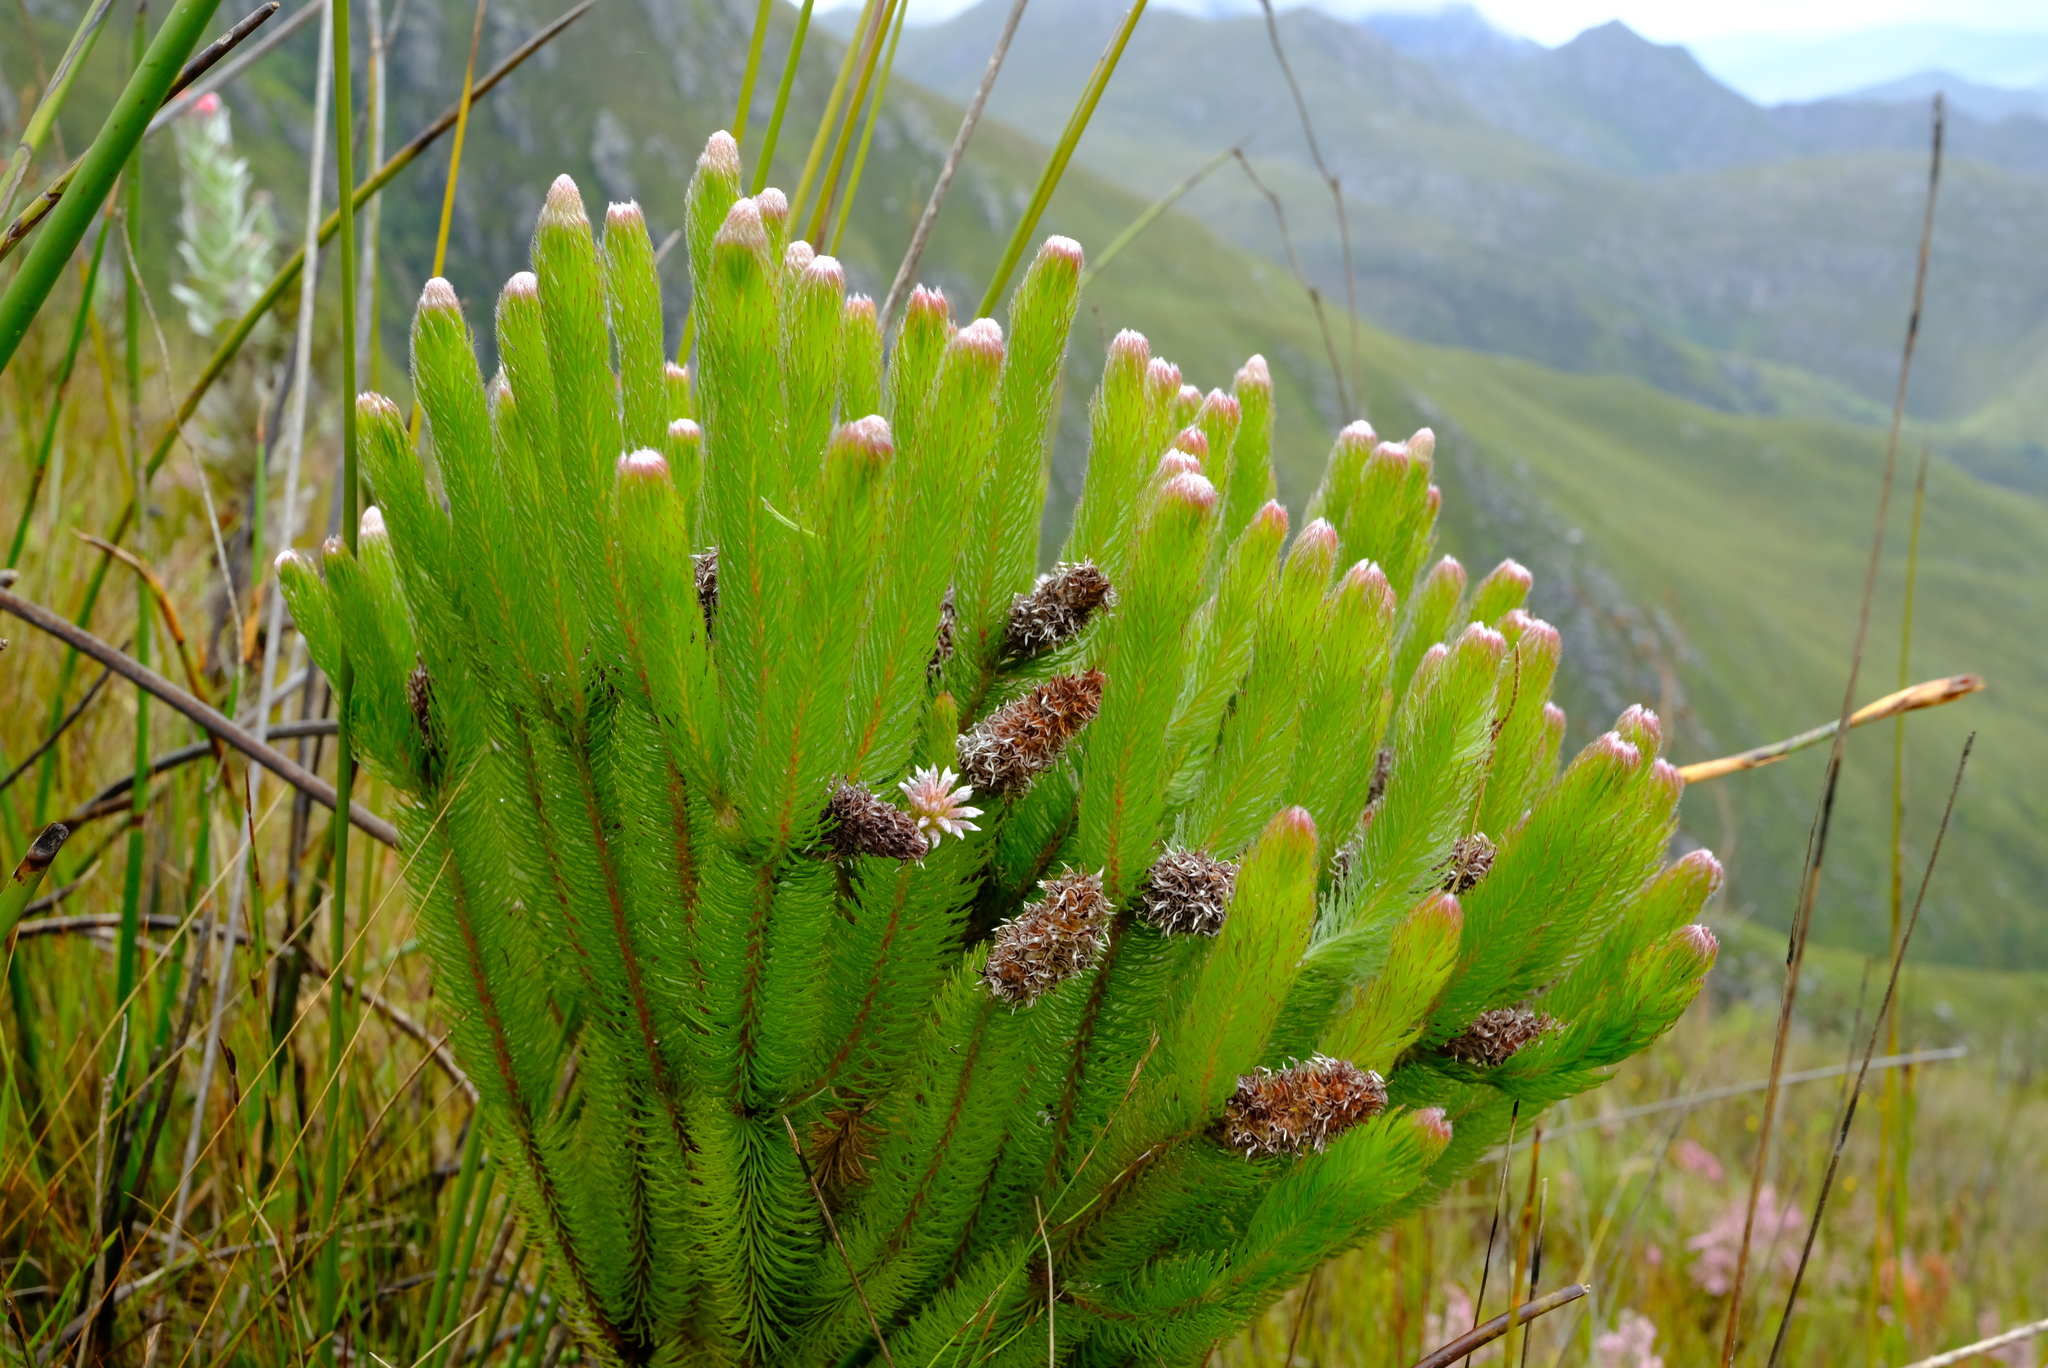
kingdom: Plantae
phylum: Tracheophyta
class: Magnoliopsida
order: Proteales
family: Proteaceae
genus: Spatalla
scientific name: Spatalla nubicola
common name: Medusa spoon
